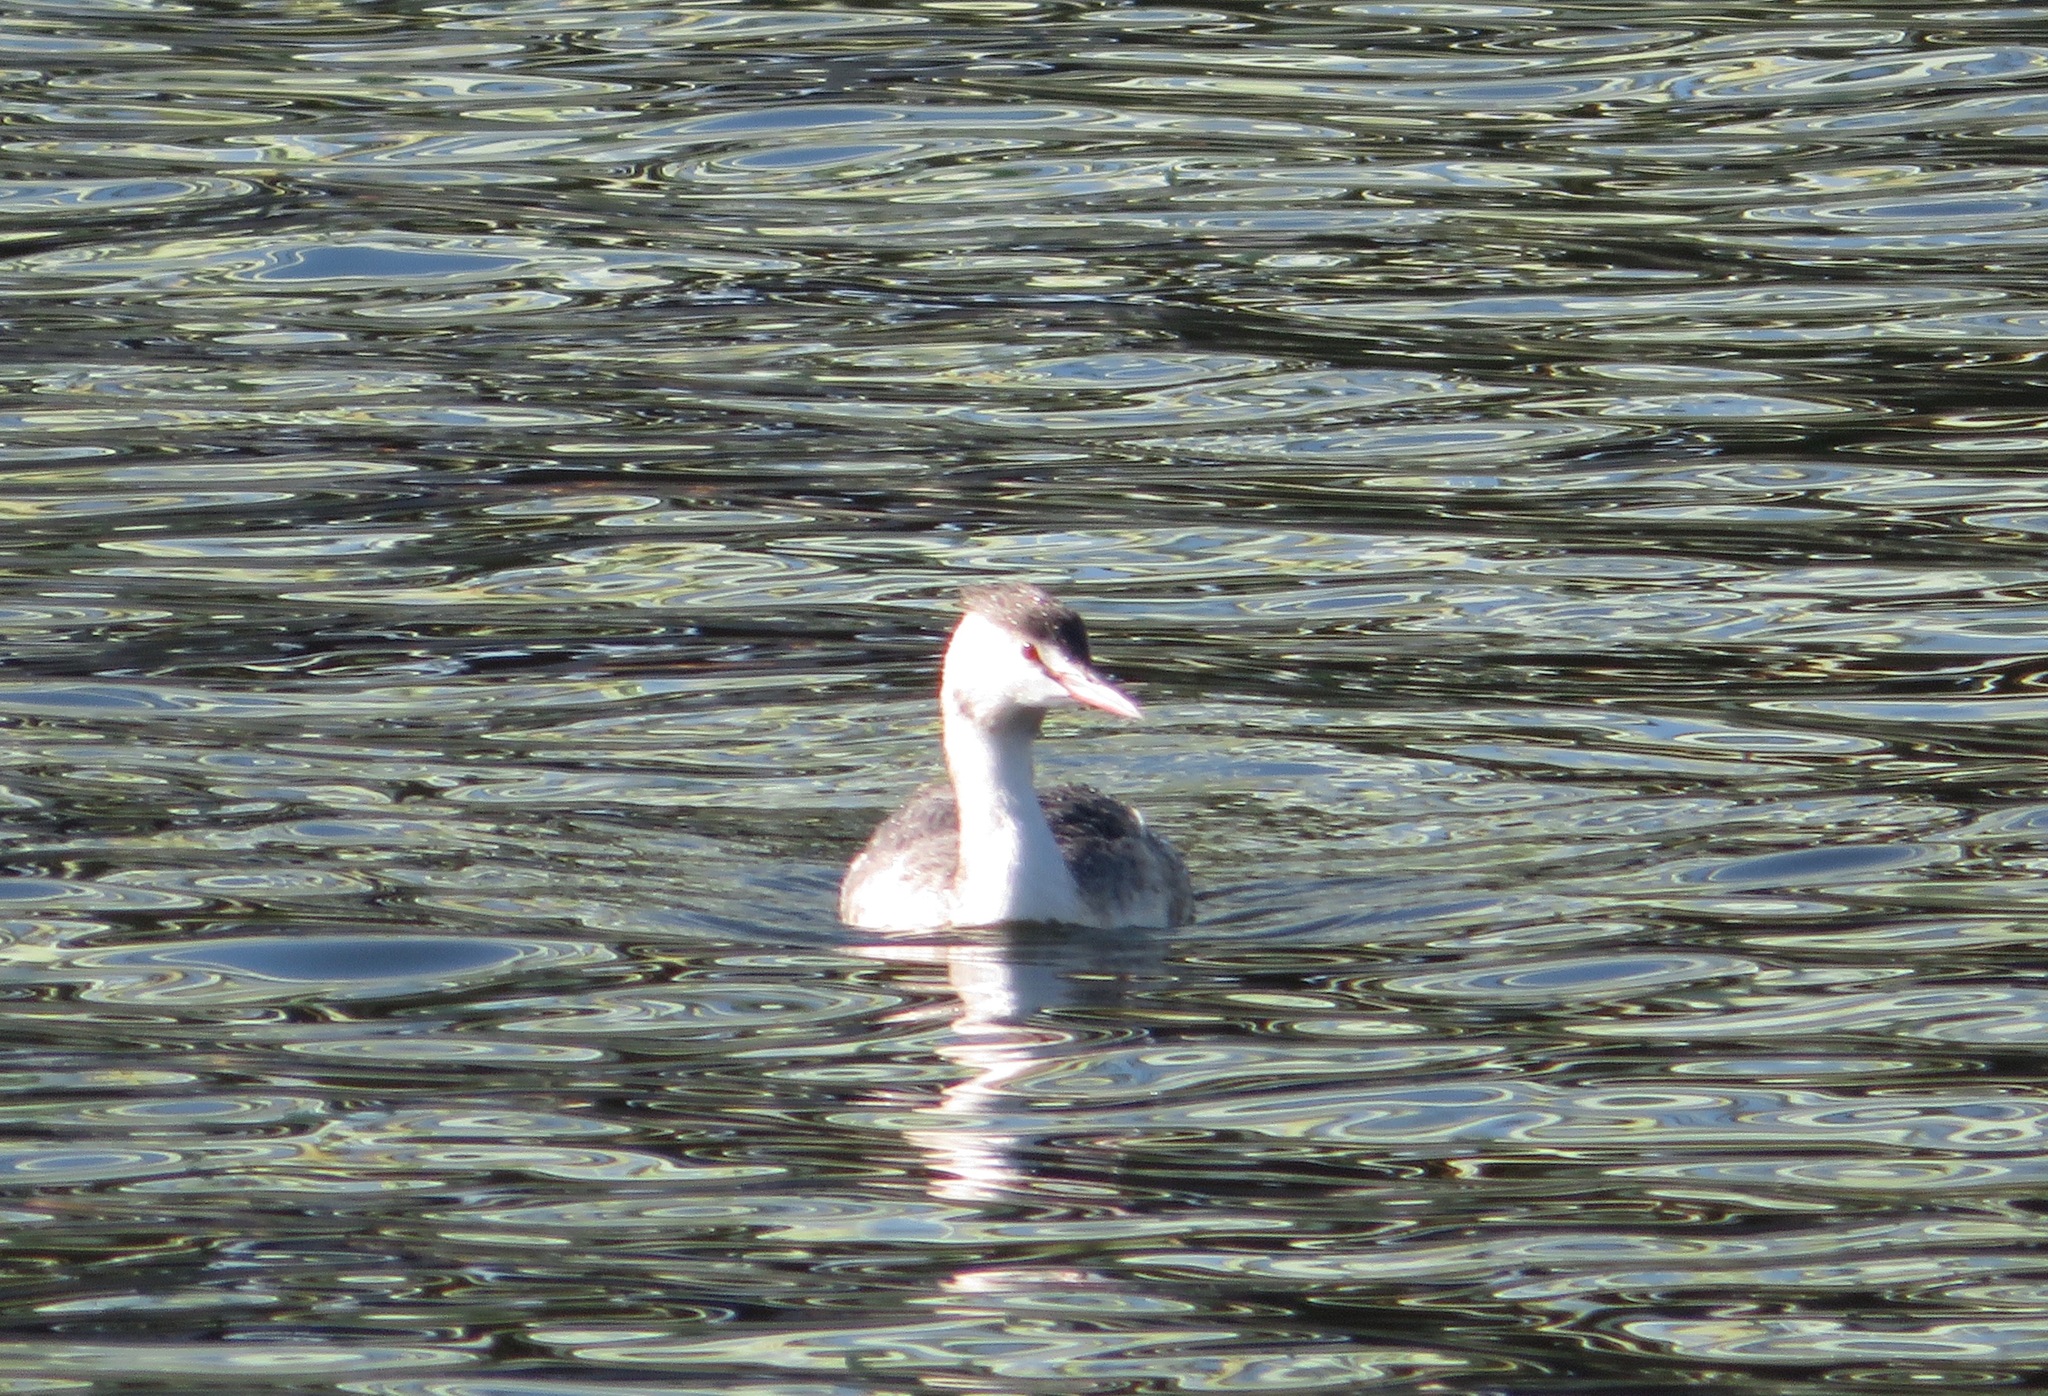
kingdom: Animalia
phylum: Chordata
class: Aves
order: Podicipediformes
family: Podicipedidae
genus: Podiceps
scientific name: Podiceps cristatus
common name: Great crested grebe
